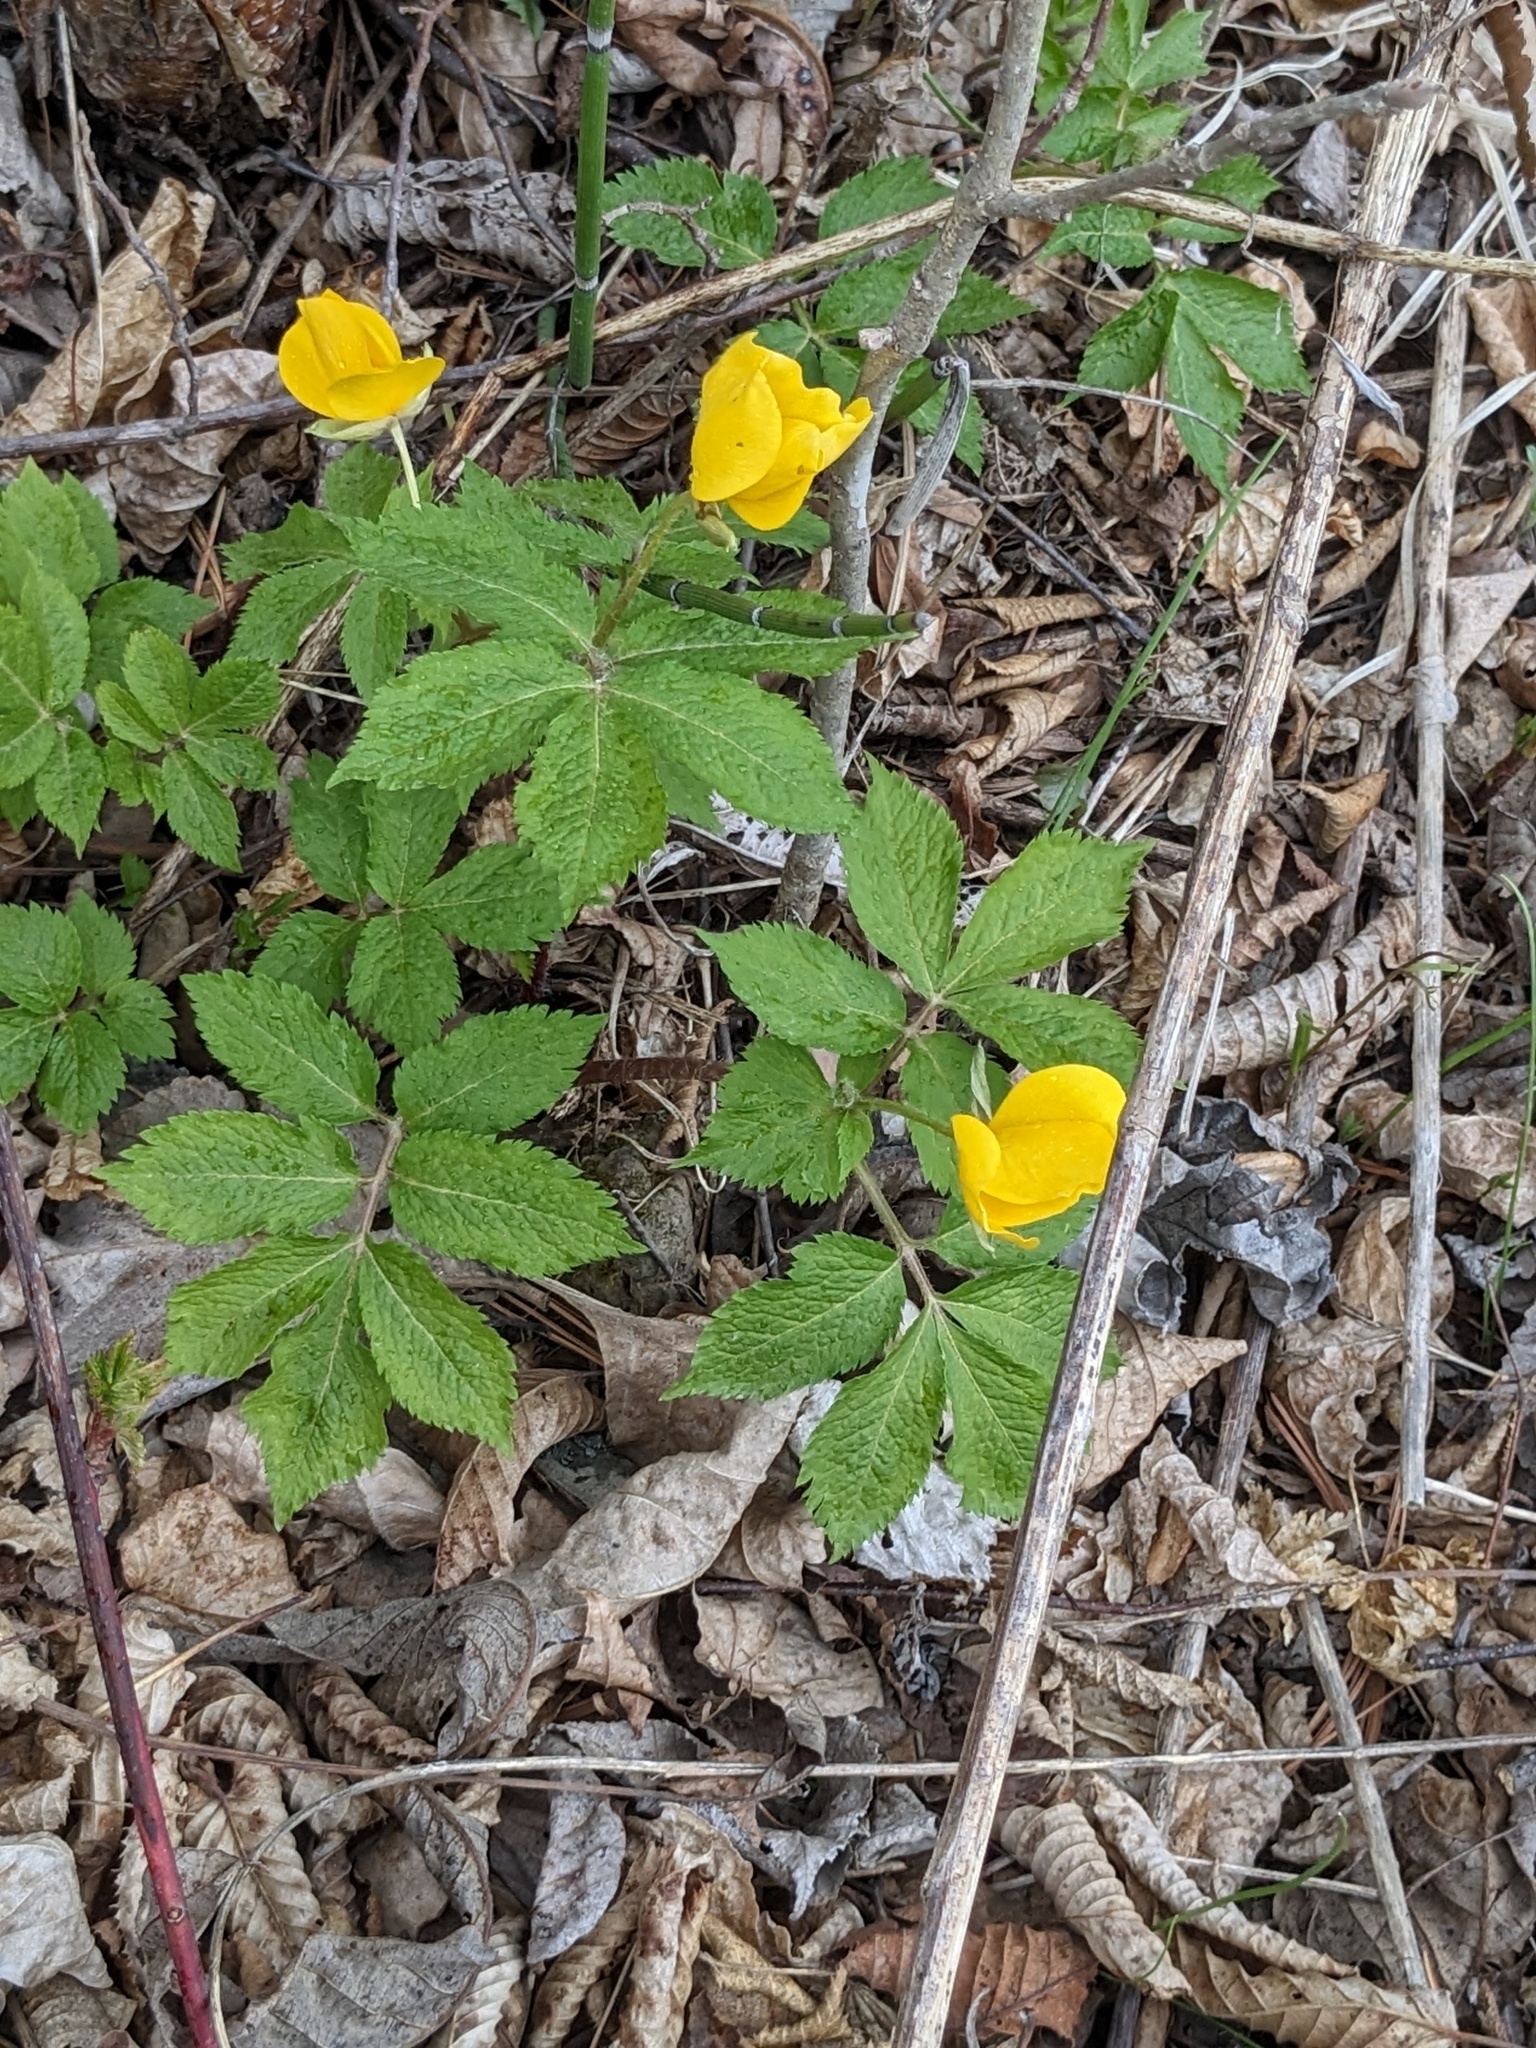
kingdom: Plantae
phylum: Tracheophyta
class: Magnoliopsida
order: Ranunculales
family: Papaveraceae
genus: Hylomecon
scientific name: Hylomecon vernalis
